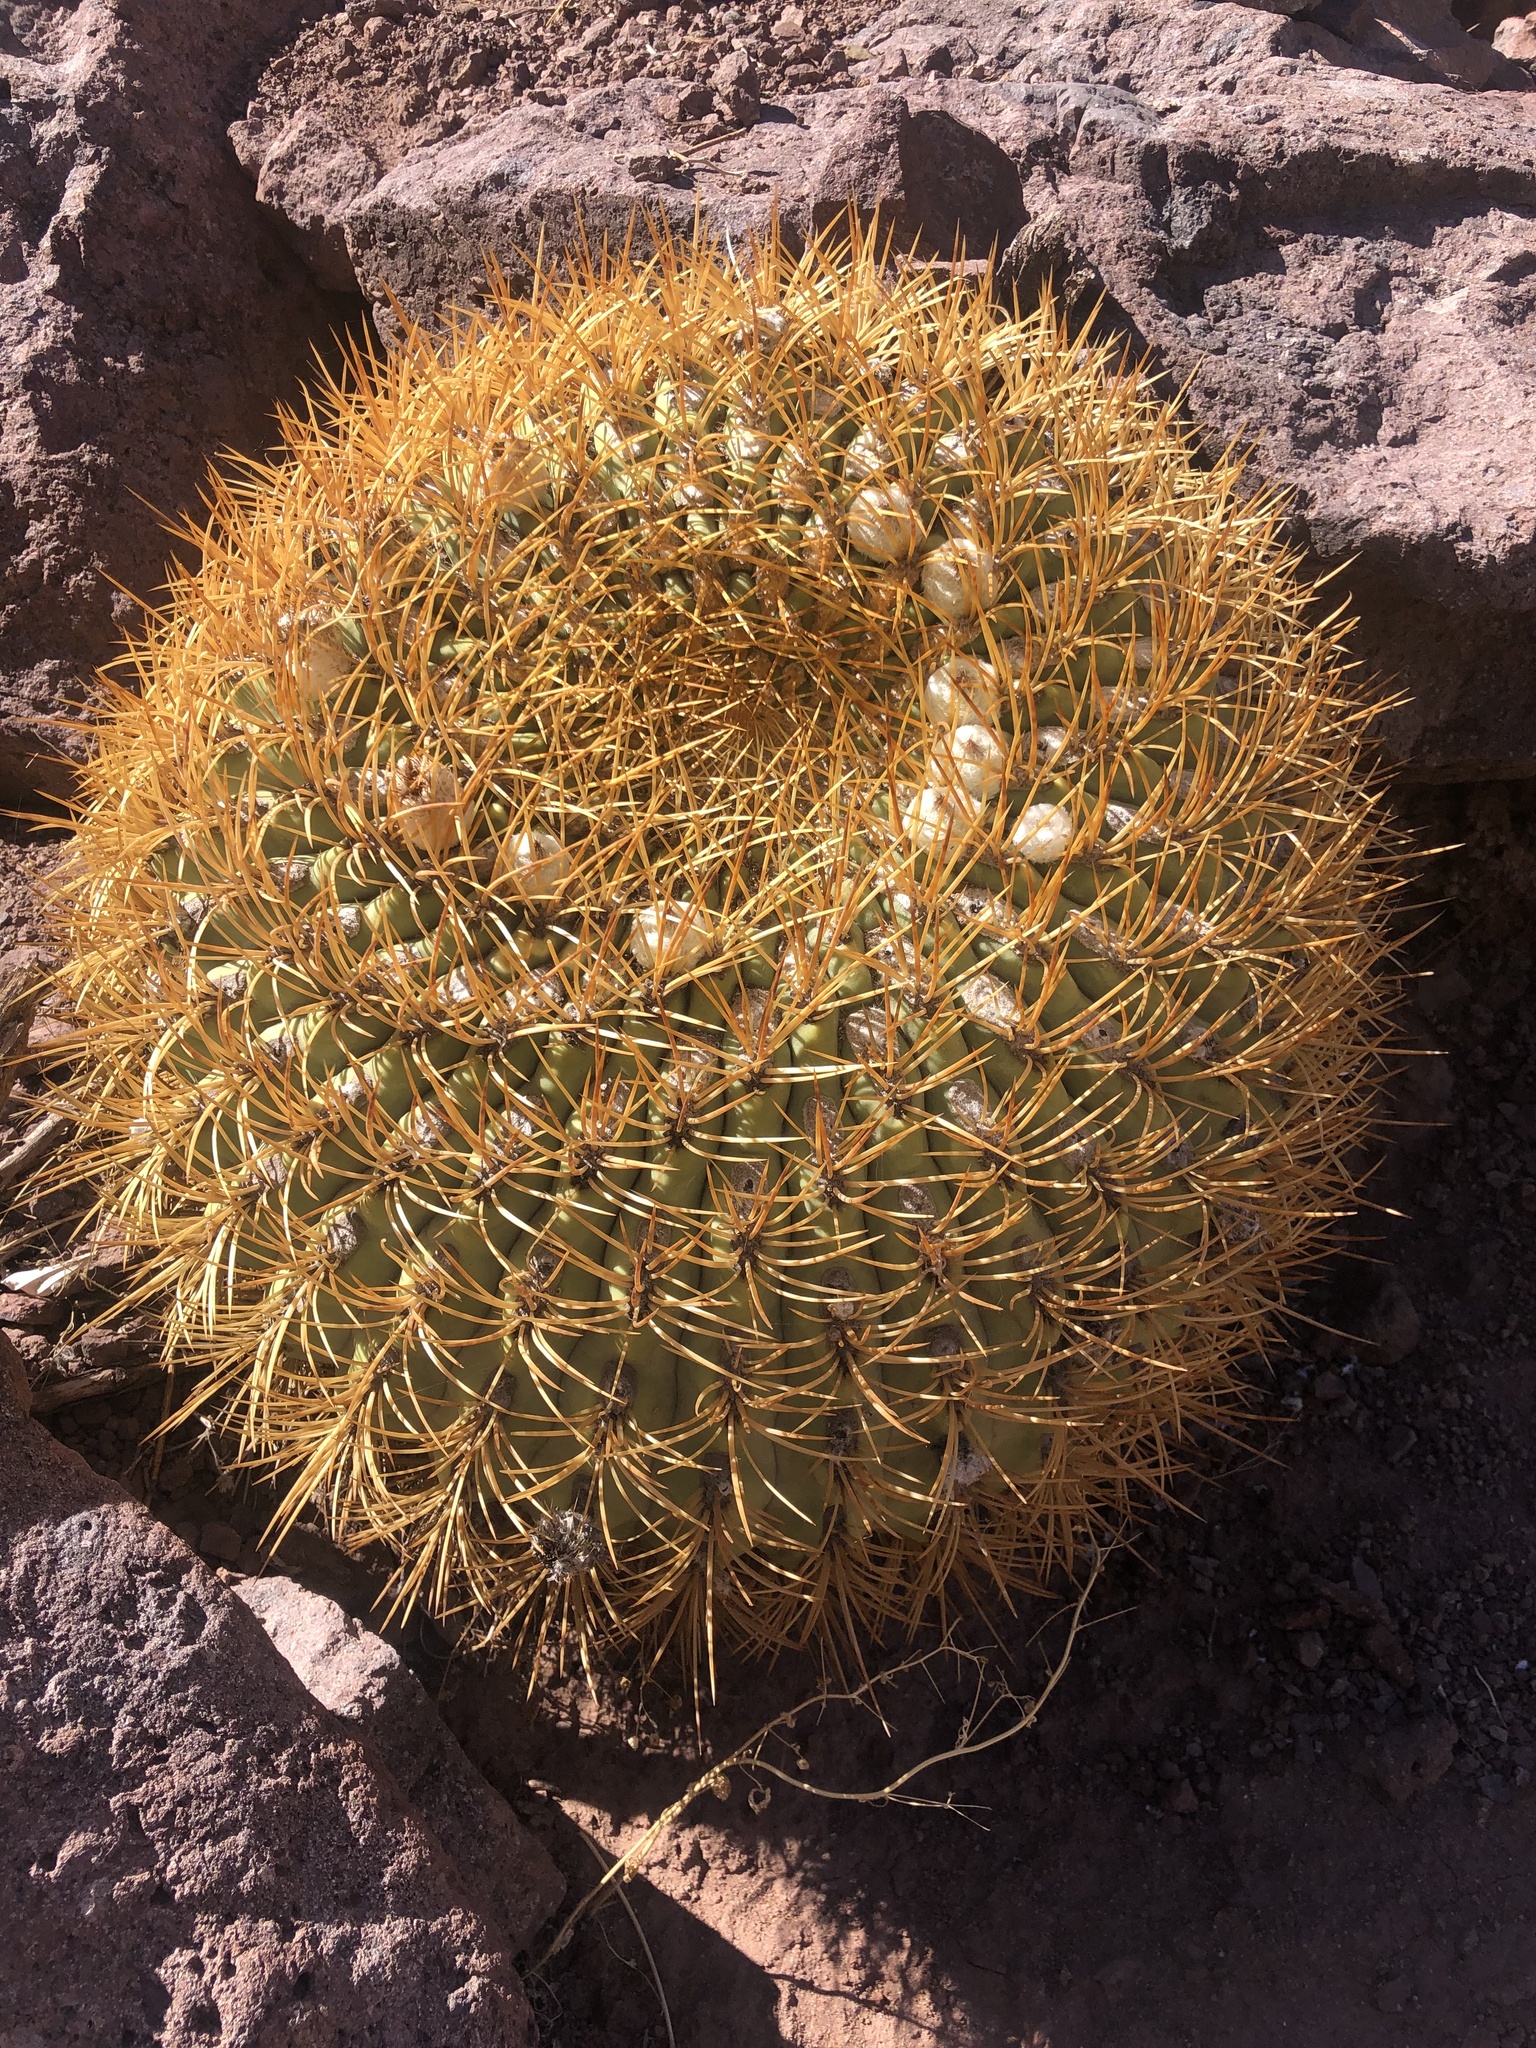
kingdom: Plantae
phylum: Tracheophyta
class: Magnoliopsida
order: Caryophyllales
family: Cactaceae
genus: Eriosyce
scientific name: Eriosyce aurata
